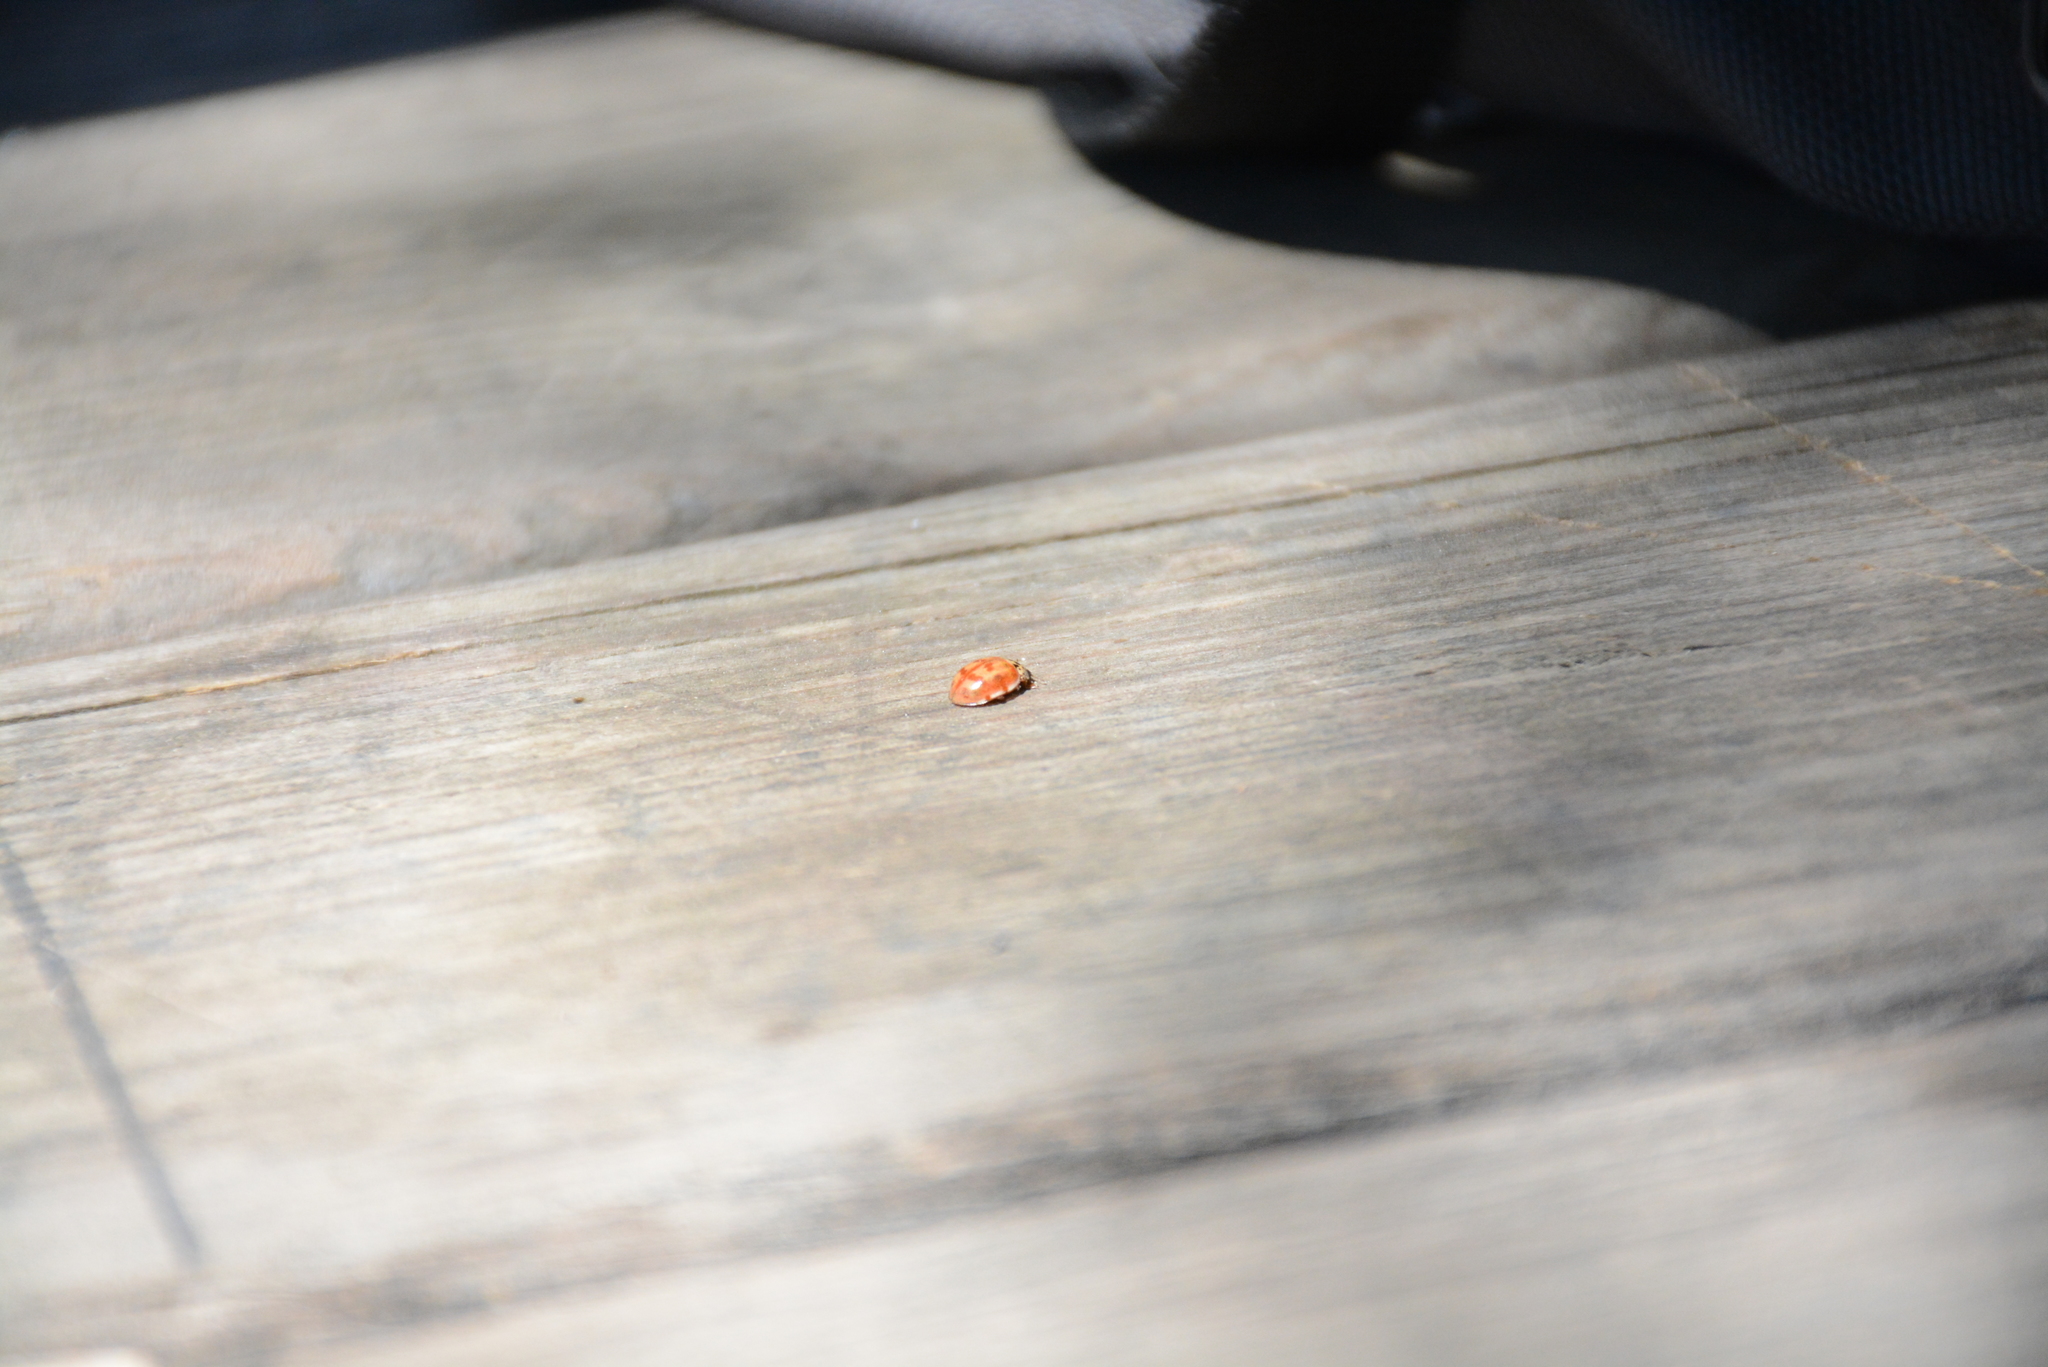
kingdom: Animalia
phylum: Arthropoda
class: Insecta
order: Coleoptera
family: Coccinellidae
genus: Harmonia
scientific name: Harmonia quadripunctata
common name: Cream-streaked ladybird
